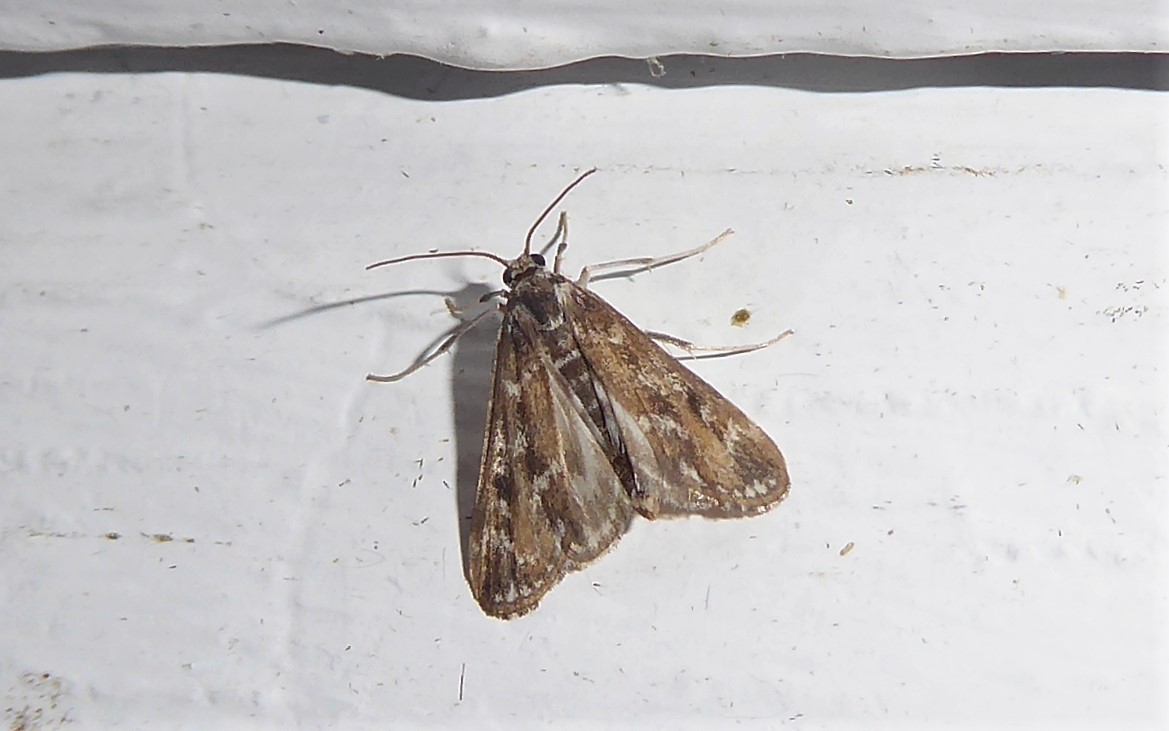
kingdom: Animalia
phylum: Arthropoda
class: Insecta
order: Lepidoptera
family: Crambidae
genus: Hygraula
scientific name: Hygraula nitens
